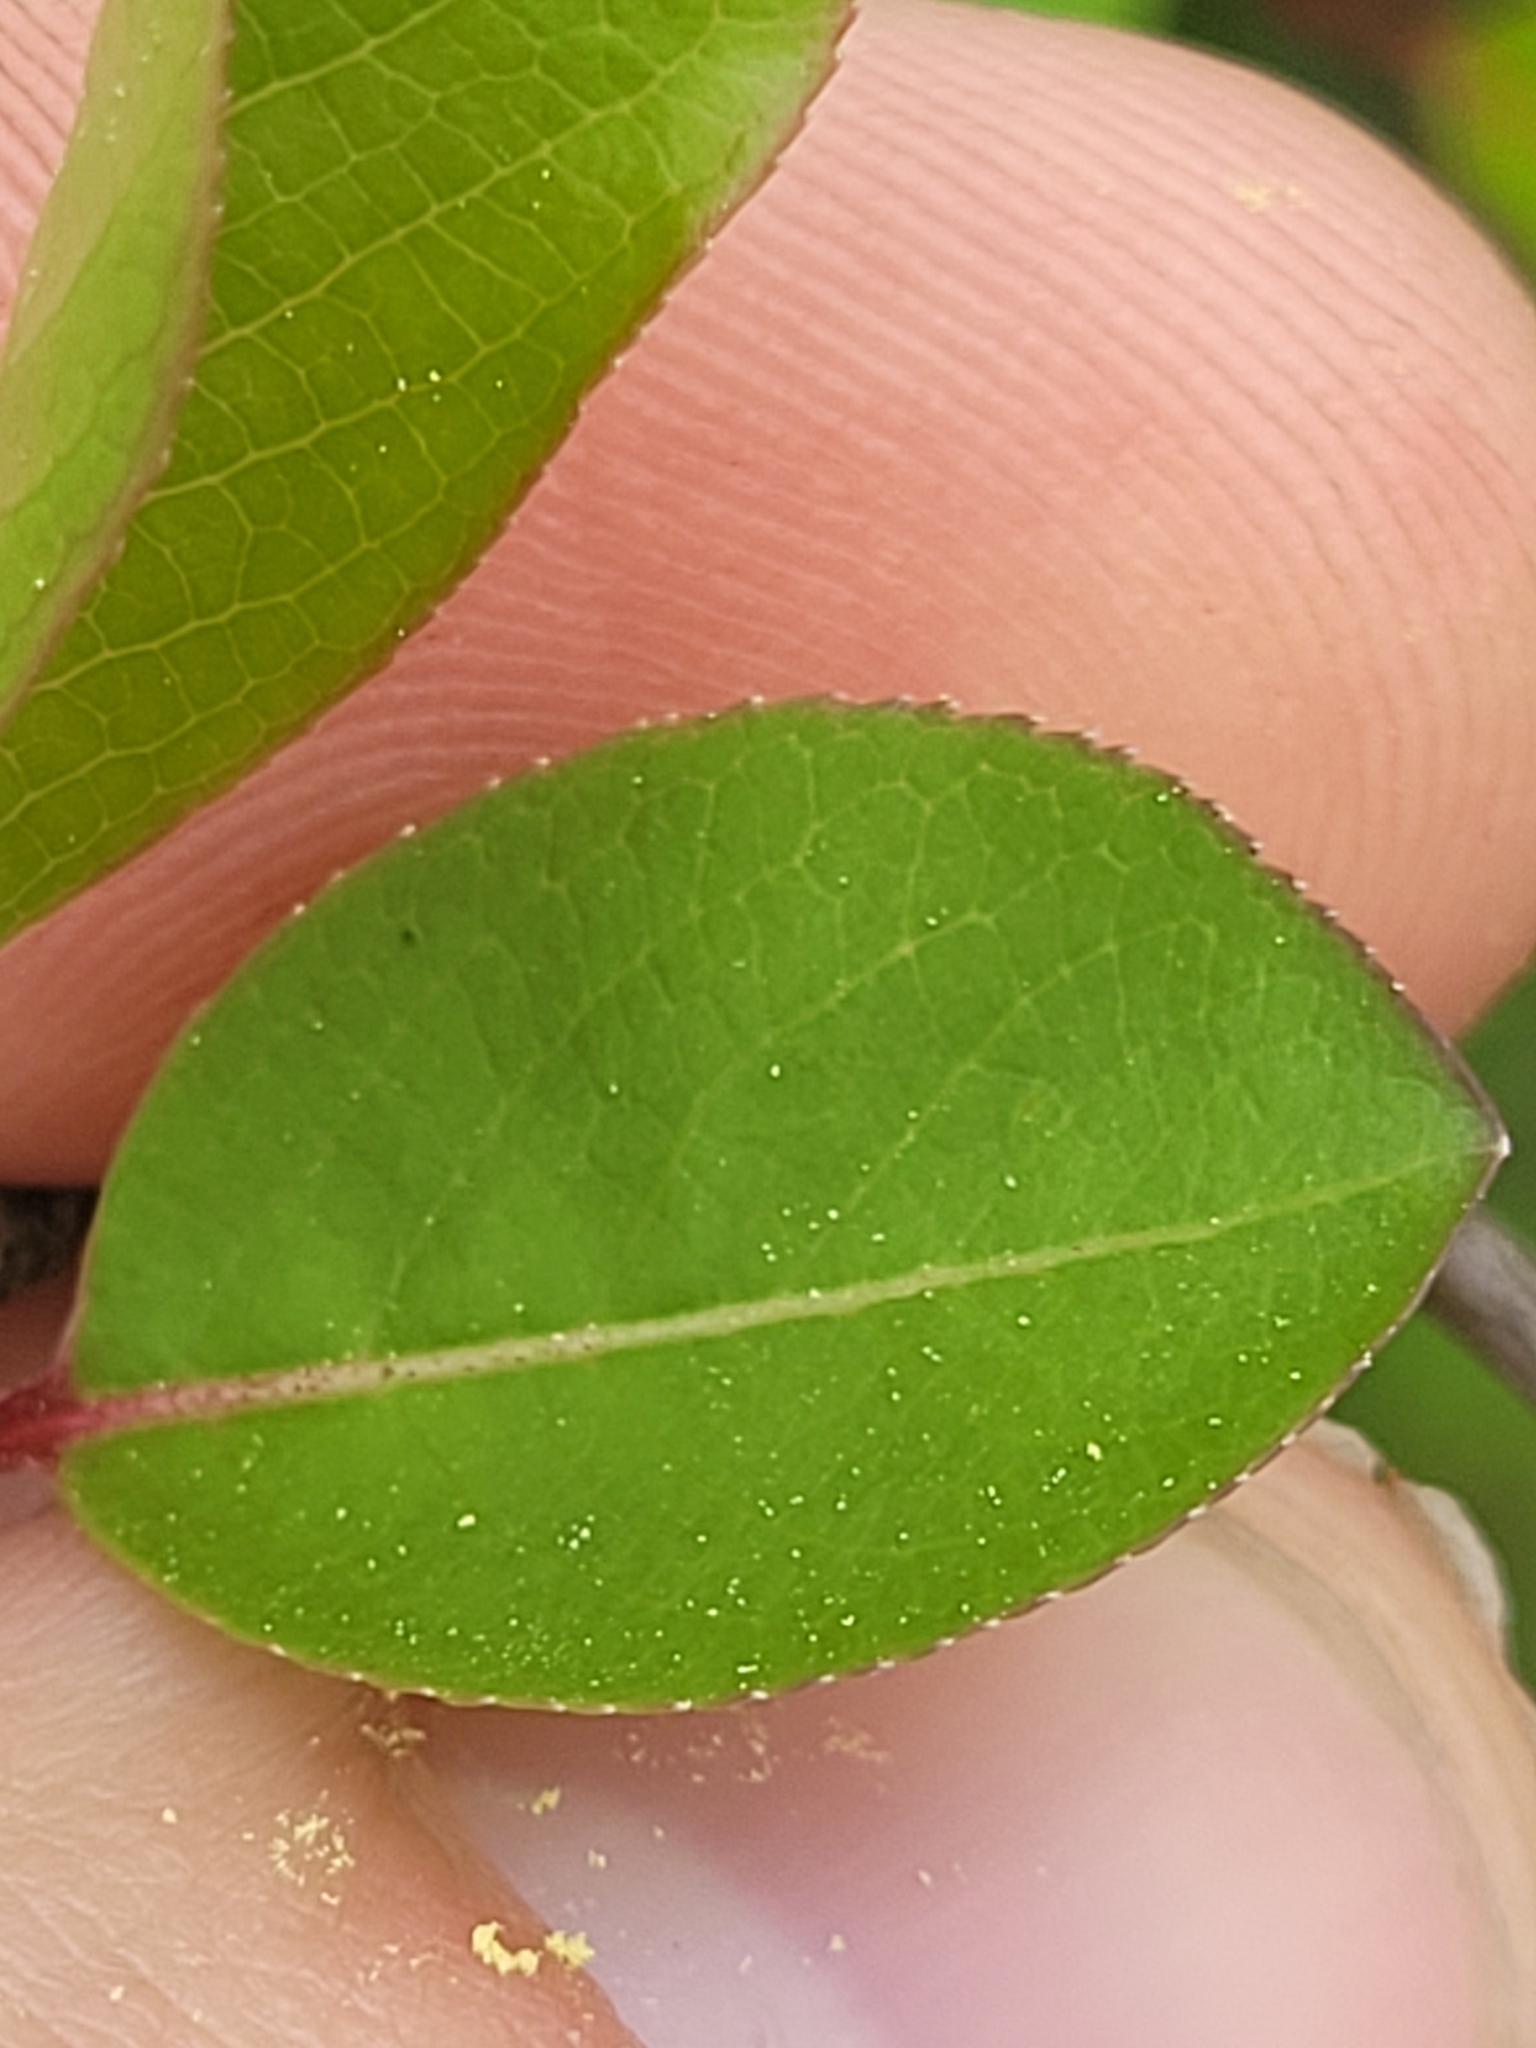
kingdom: Plantae
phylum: Tracheophyta
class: Magnoliopsida
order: Dipsacales
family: Viburnaceae
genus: Viburnum
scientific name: Viburnum prunifolium
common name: Black haw
